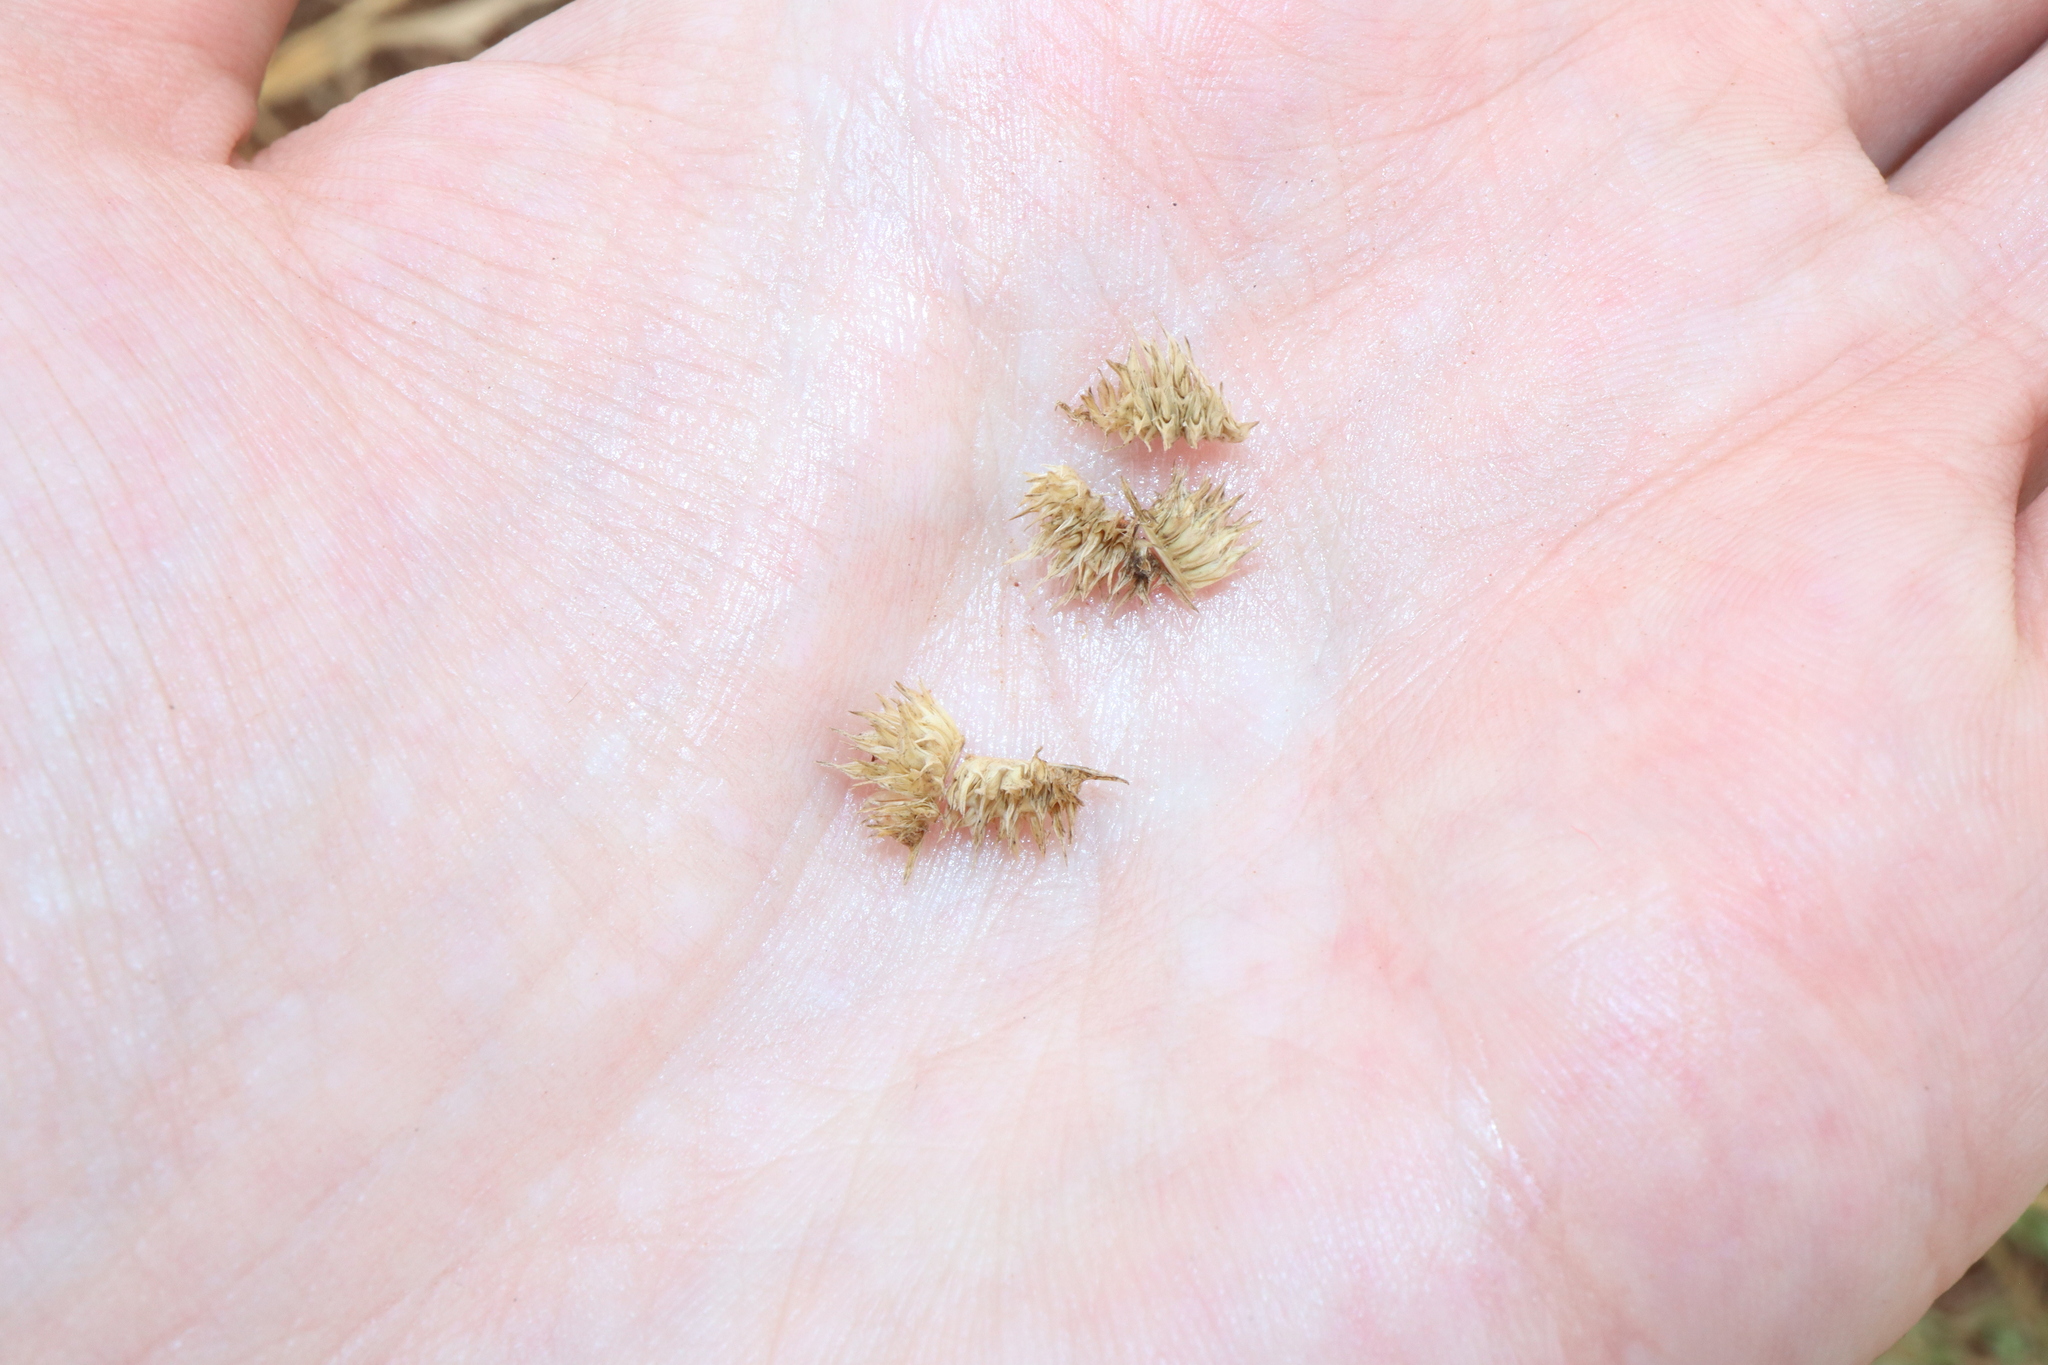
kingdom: Plantae
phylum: Tracheophyta
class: Liliopsida
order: Poales
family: Poaceae
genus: Dactyloctenium
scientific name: Dactyloctenium radulans
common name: Button-grass
